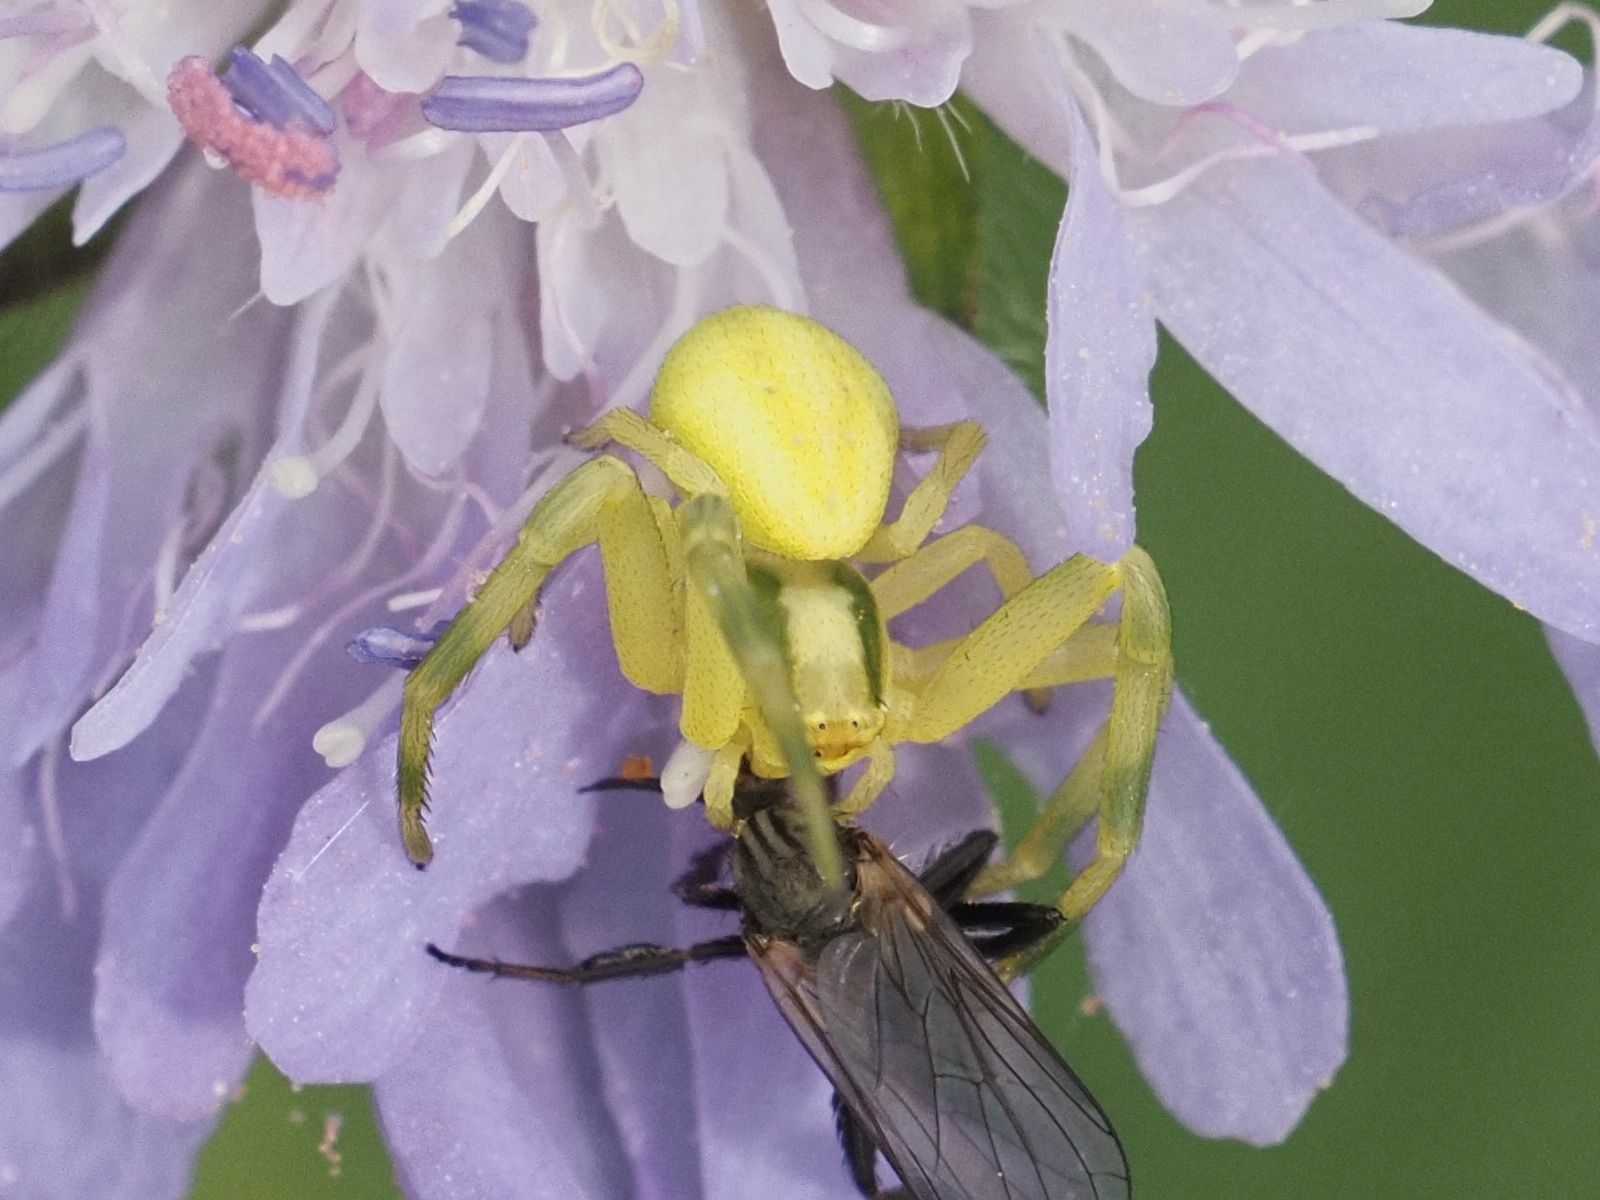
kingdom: Animalia
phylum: Arthropoda
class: Arachnida
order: Araneae
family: Thomisidae
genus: Misumena
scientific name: Misumena vatia
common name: Goldenrod crab spider
